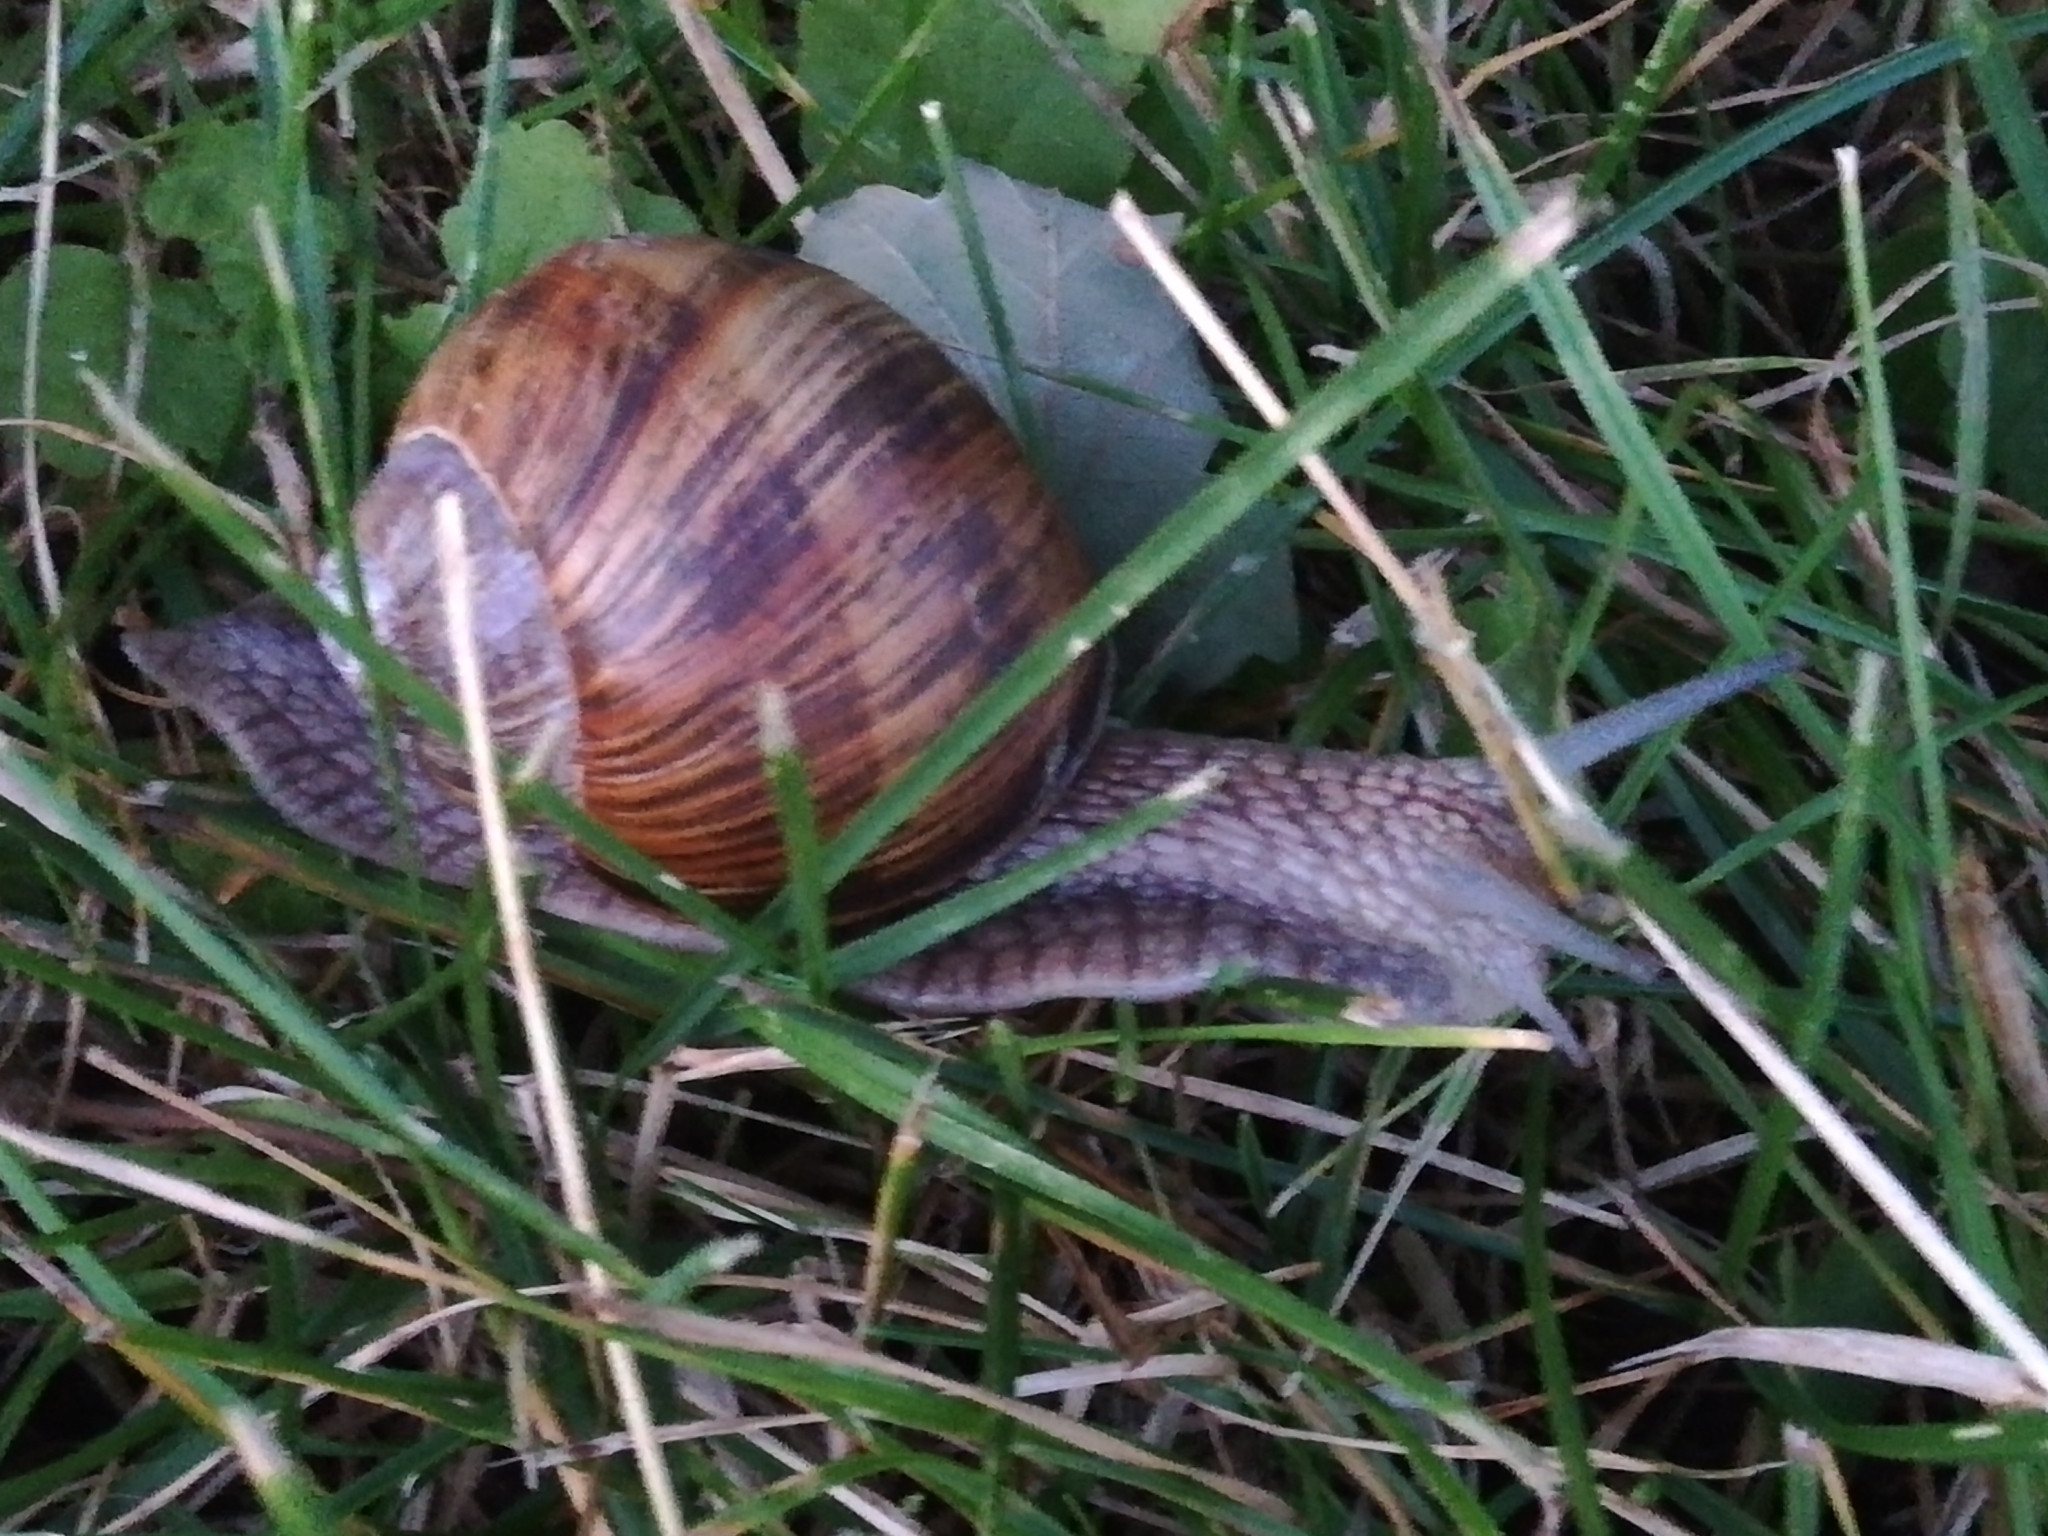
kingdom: Animalia
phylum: Mollusca
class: Gastropoda
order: Stylommatophora
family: Helicidae
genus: Helix
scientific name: Helix pomatia
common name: Roman snail
